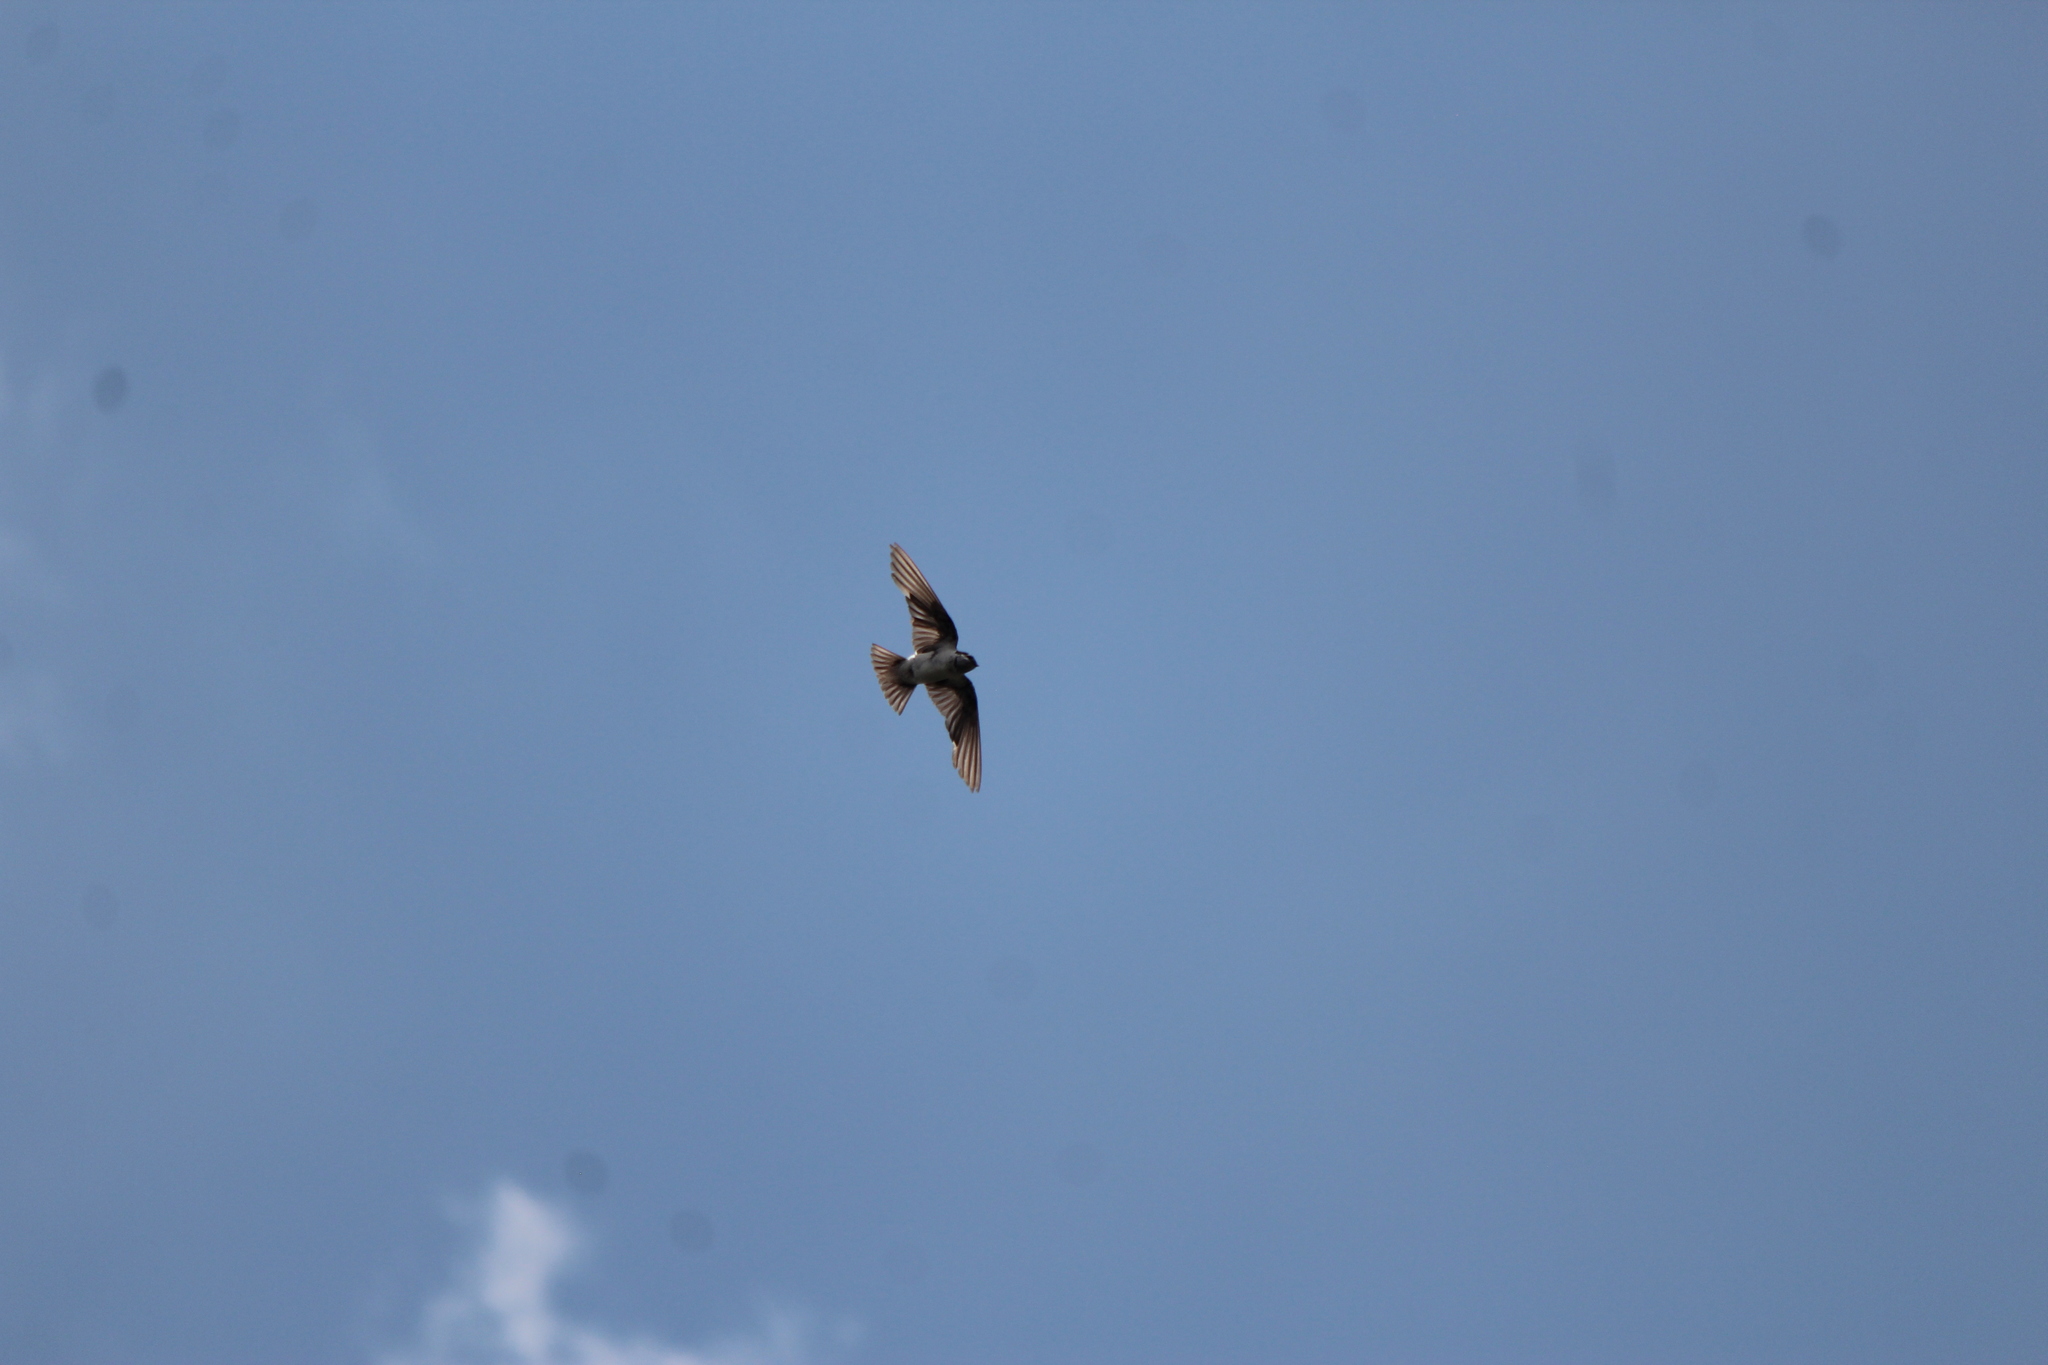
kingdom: Animalia
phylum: Chordata
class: Aves
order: Passeriformes
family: Hirundinidae
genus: Tachycineta
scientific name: Tachycineta thalassina
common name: Violet-green swallow
